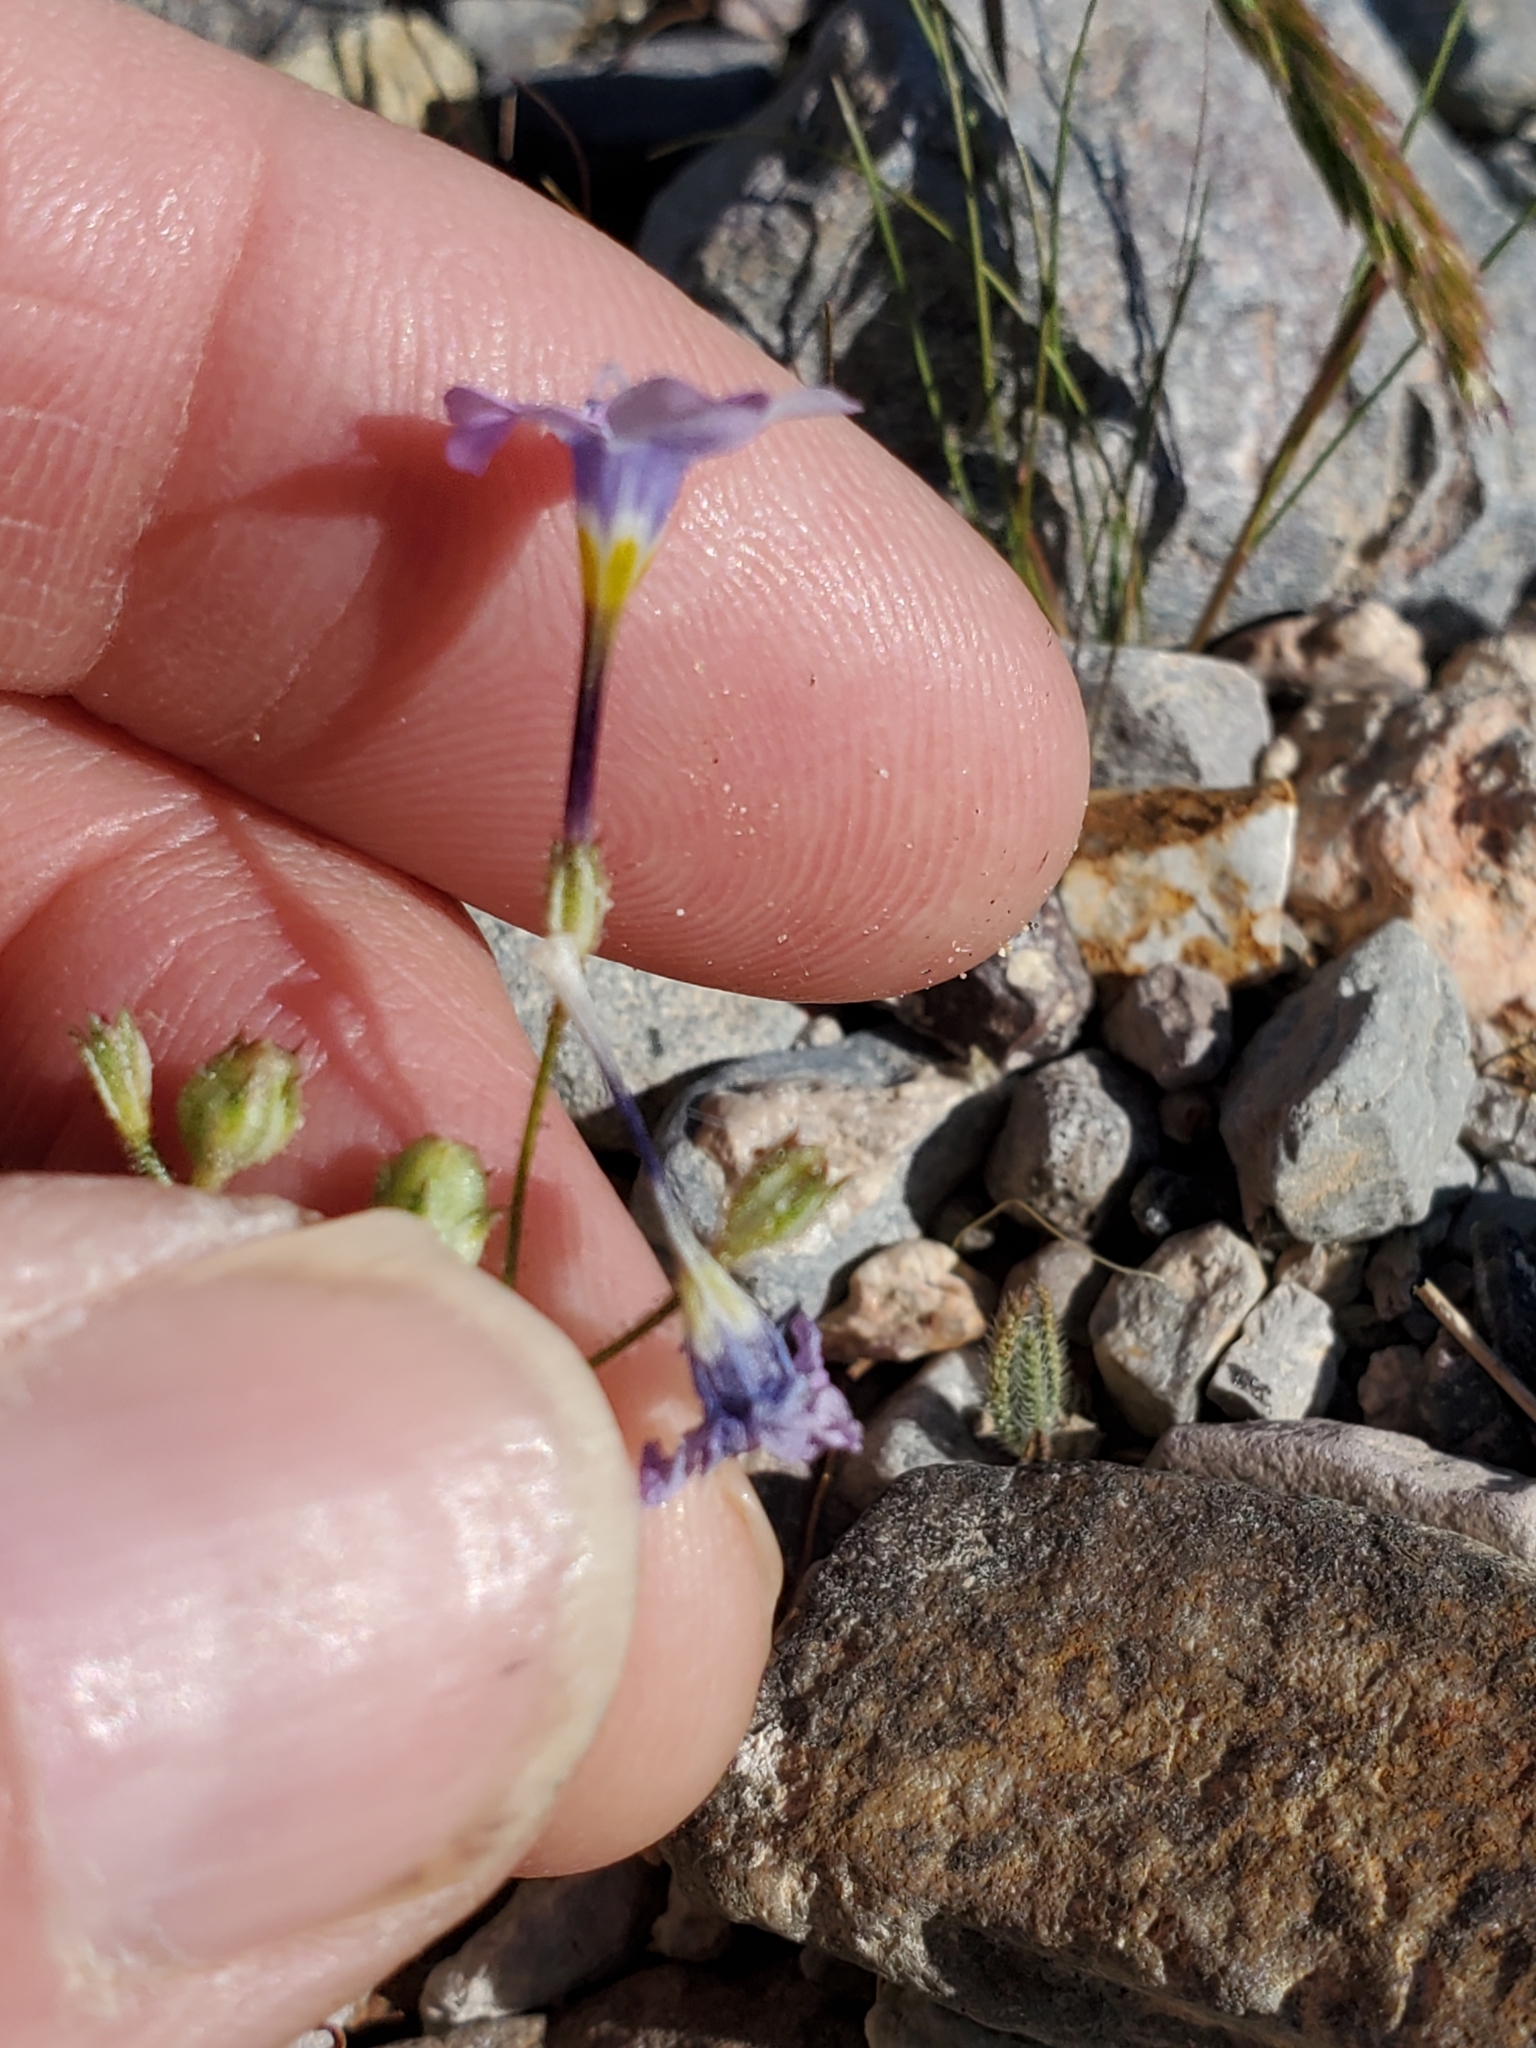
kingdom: Plantae
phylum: Tracheophyta
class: Magnoliopsida
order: Ericales
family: Polemoniaceae
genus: Gilia
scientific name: Gilia cana
